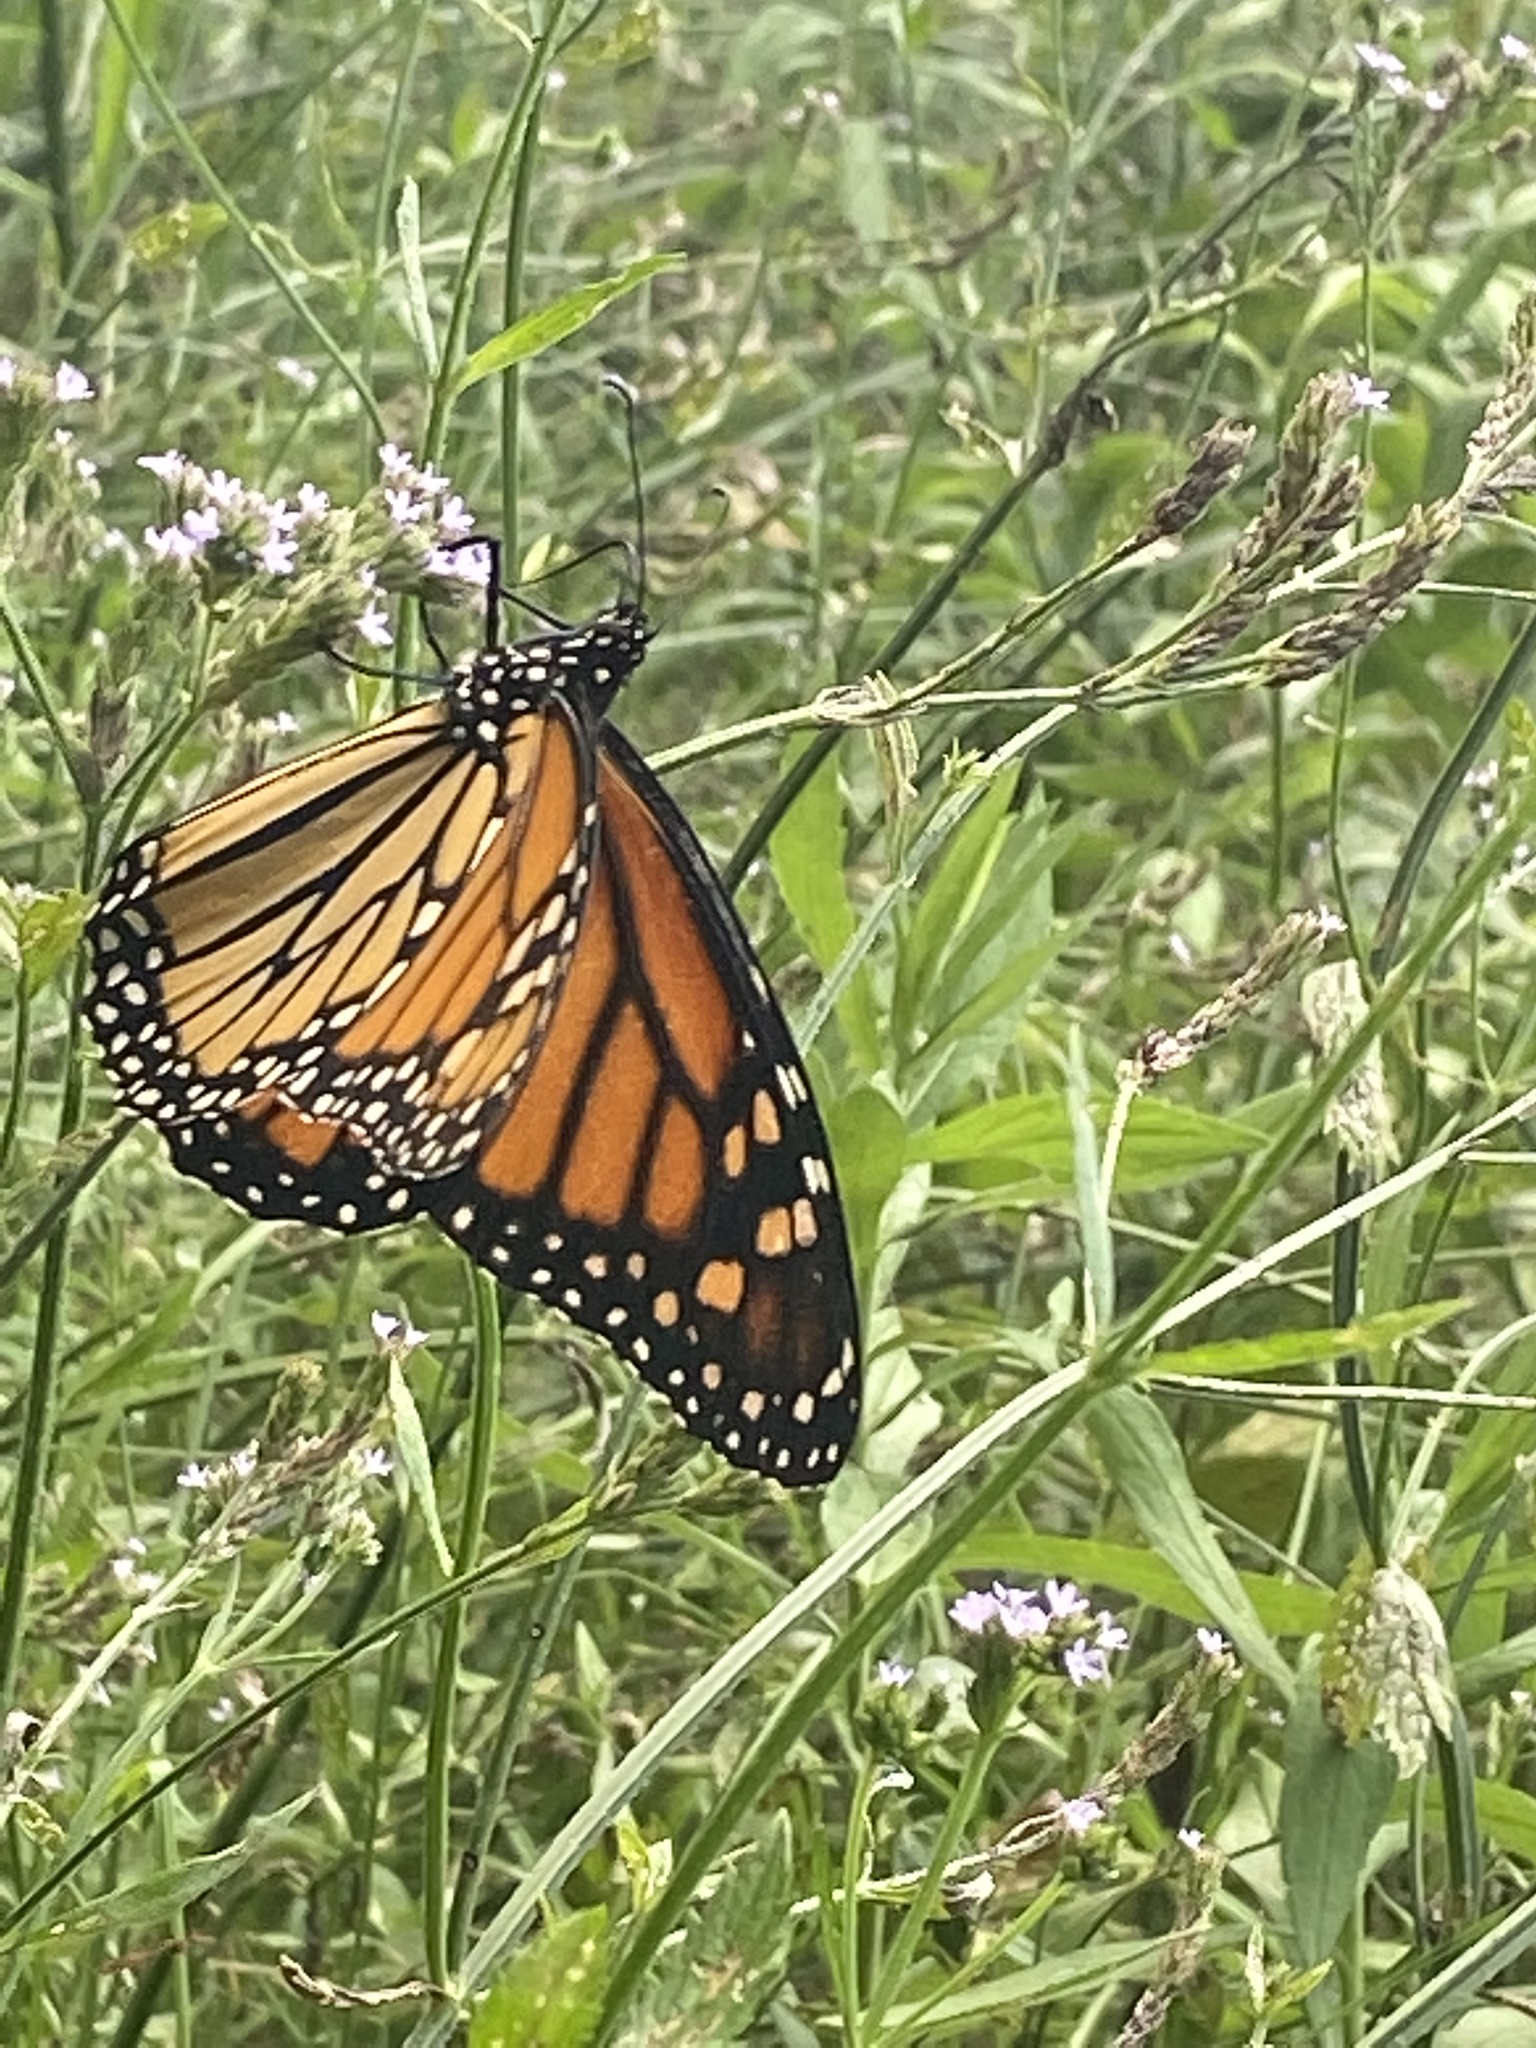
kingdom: Animalia
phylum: Arthropoda
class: Insecta
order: Lepidoptera
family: Nymphalidae
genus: Danaus
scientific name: Danaus plexippus
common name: Monarch
